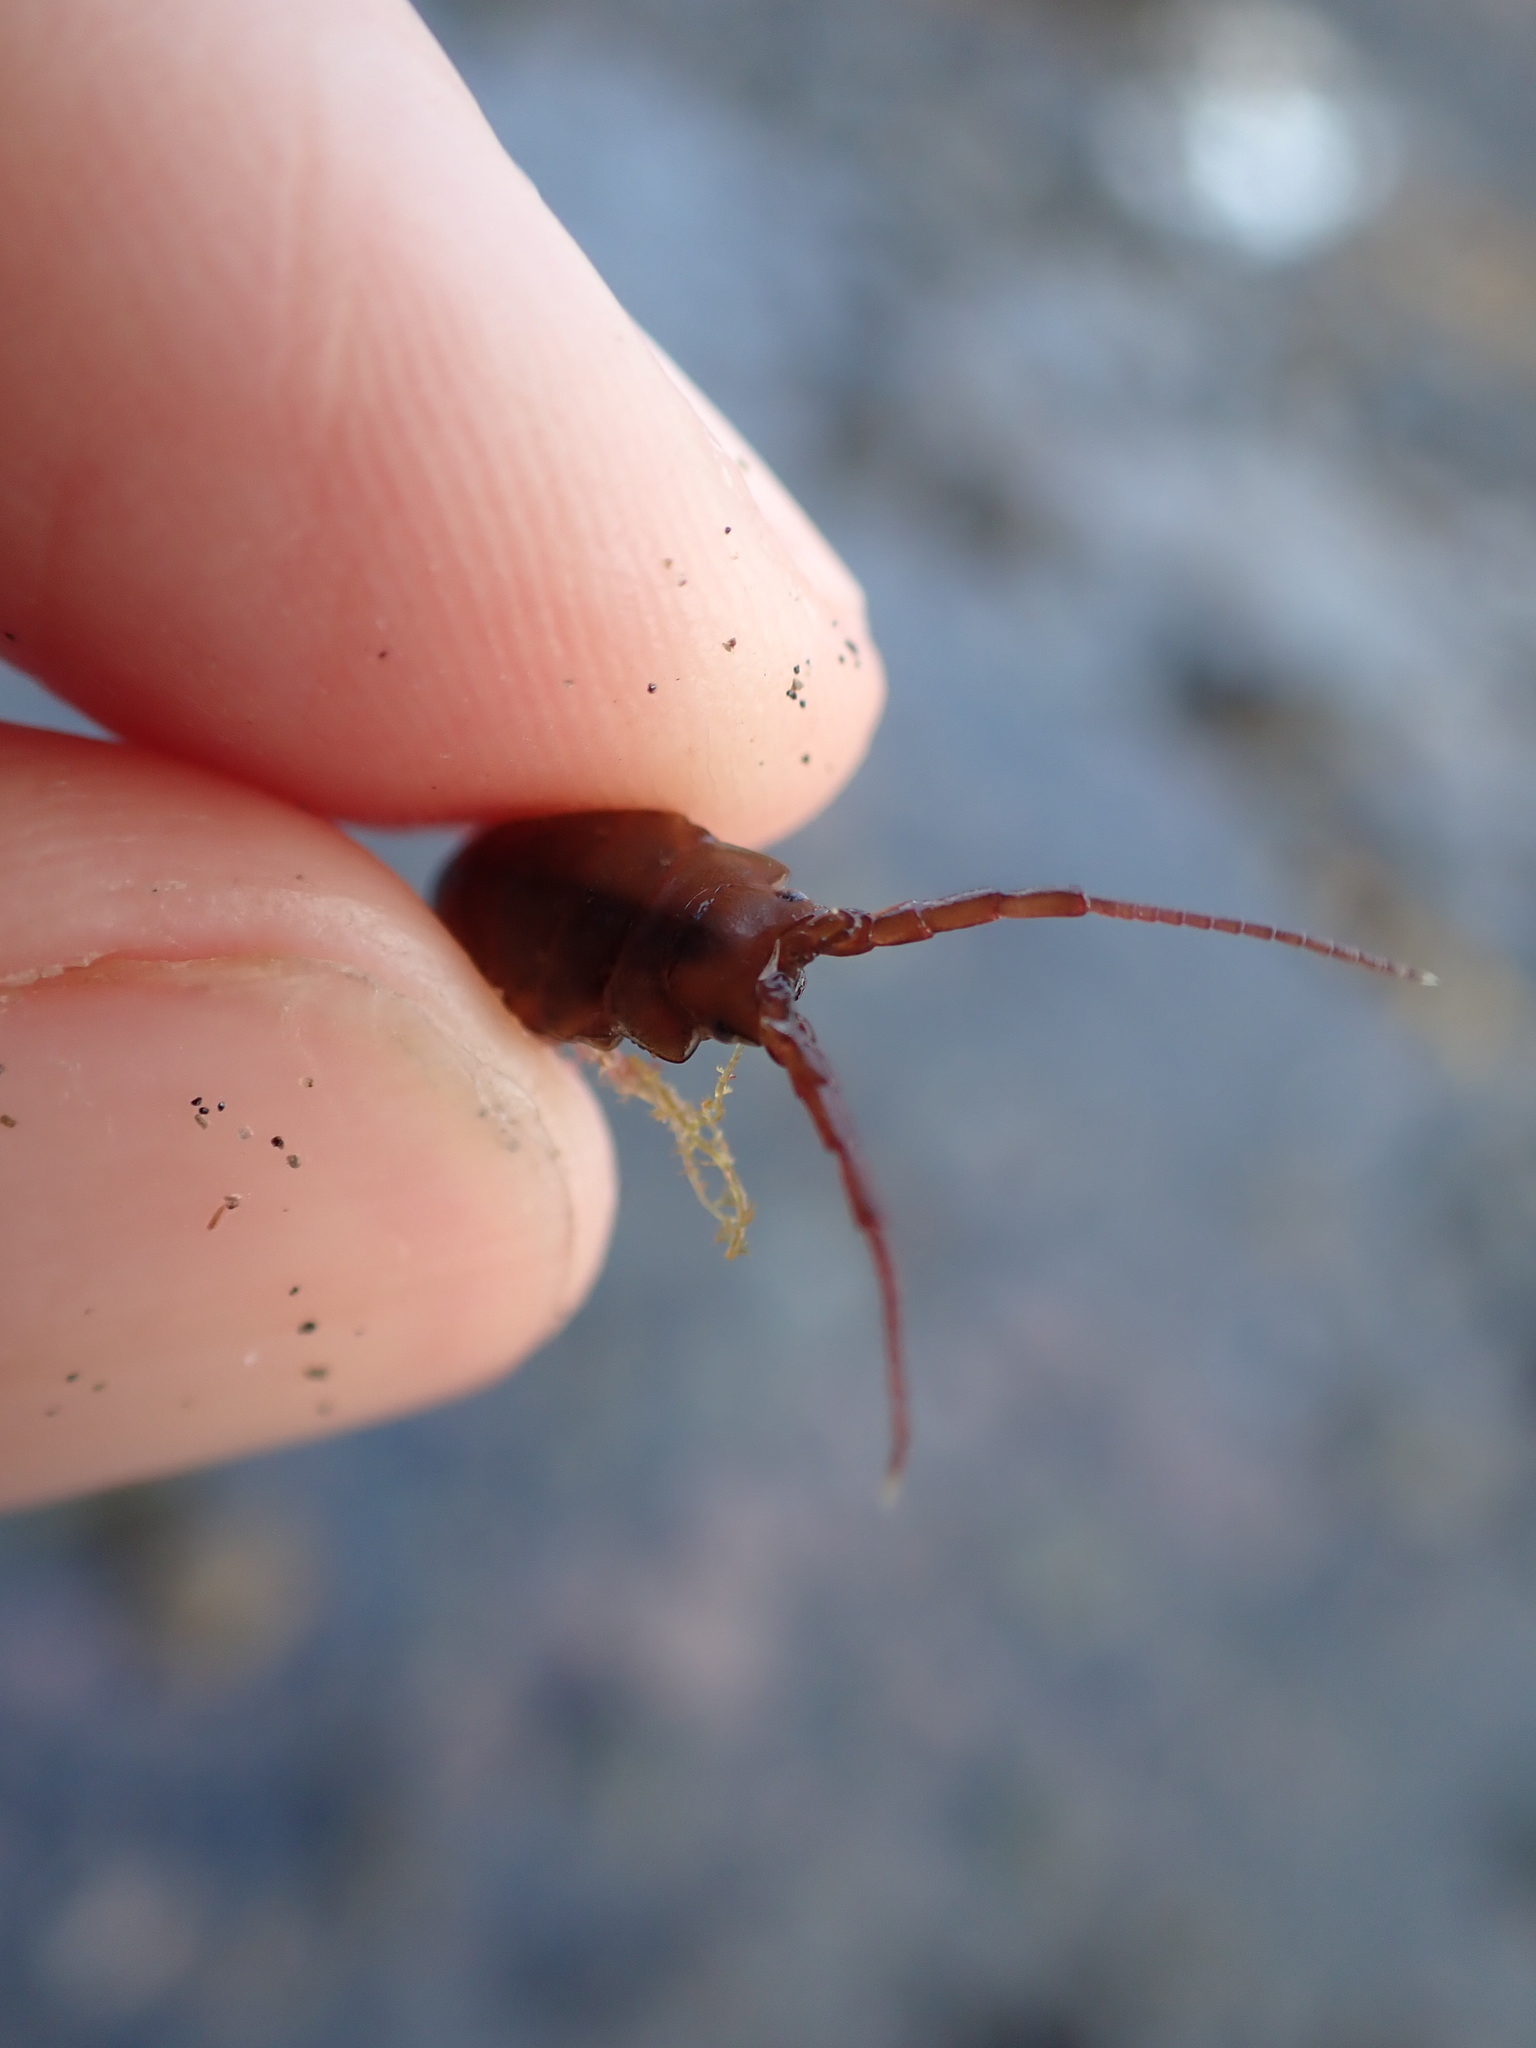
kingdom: Animalia
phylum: Arthropoda
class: Malacostraca
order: Isopoda
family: Idoteidae
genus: Euidotea
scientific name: Euidotea durvillei
